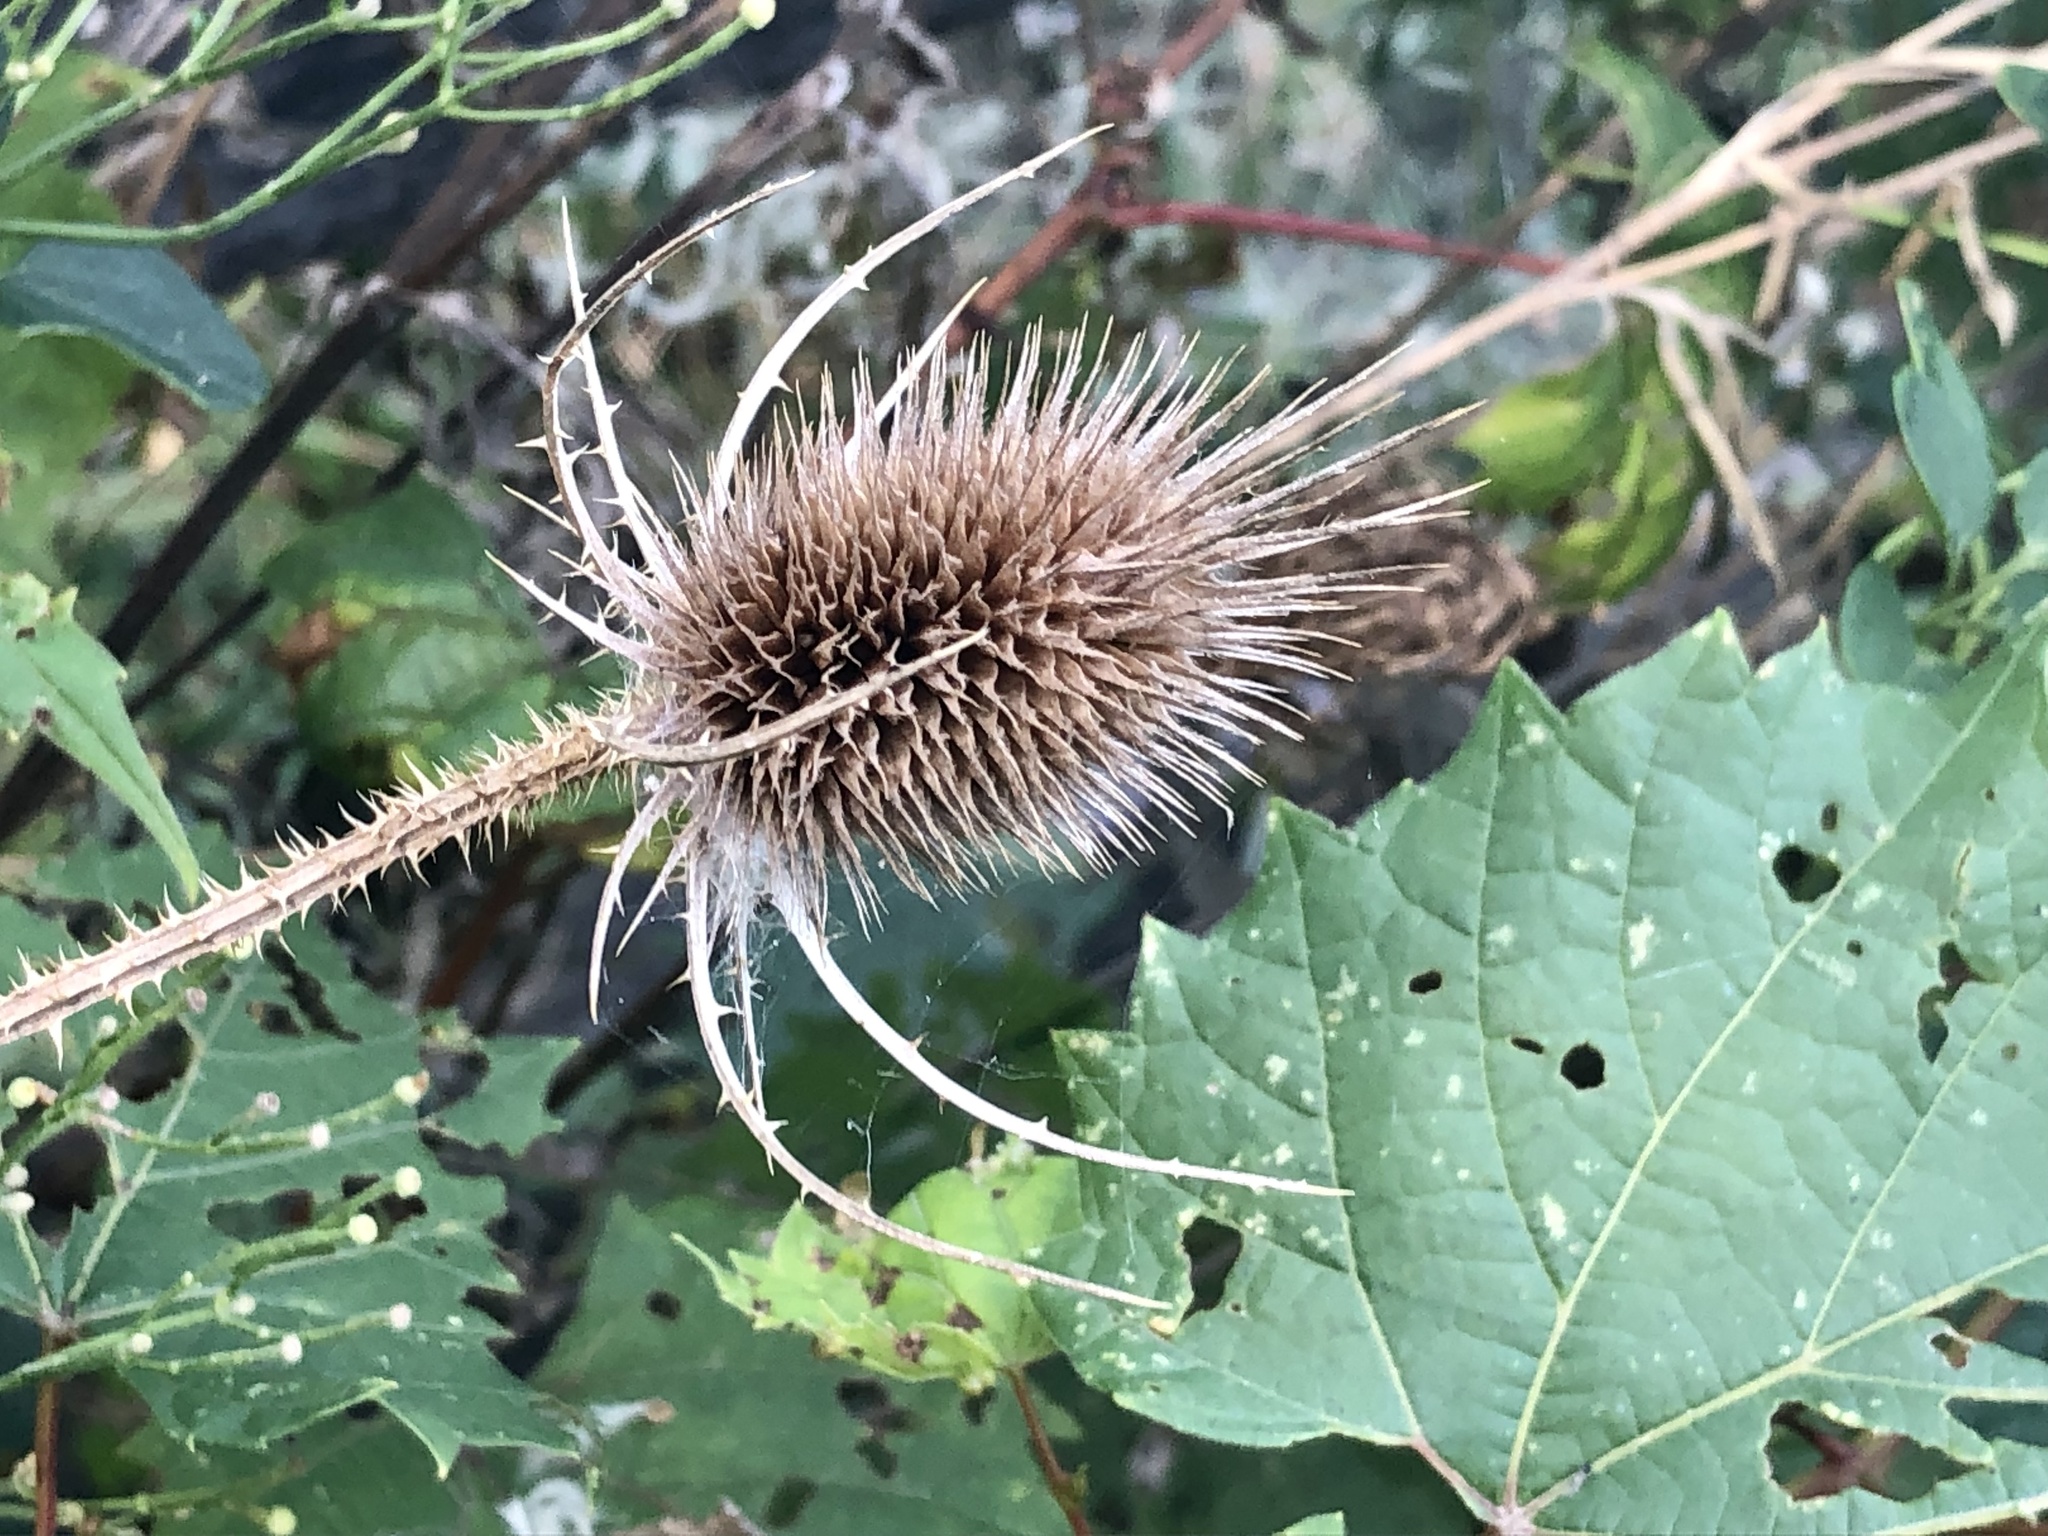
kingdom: Plantae
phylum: Tracheophyta
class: Magnoliopsida
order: Dipsacales
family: Caprifoliaceae
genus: Dipsacus
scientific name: Dipsacus fullonum
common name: Teasel
